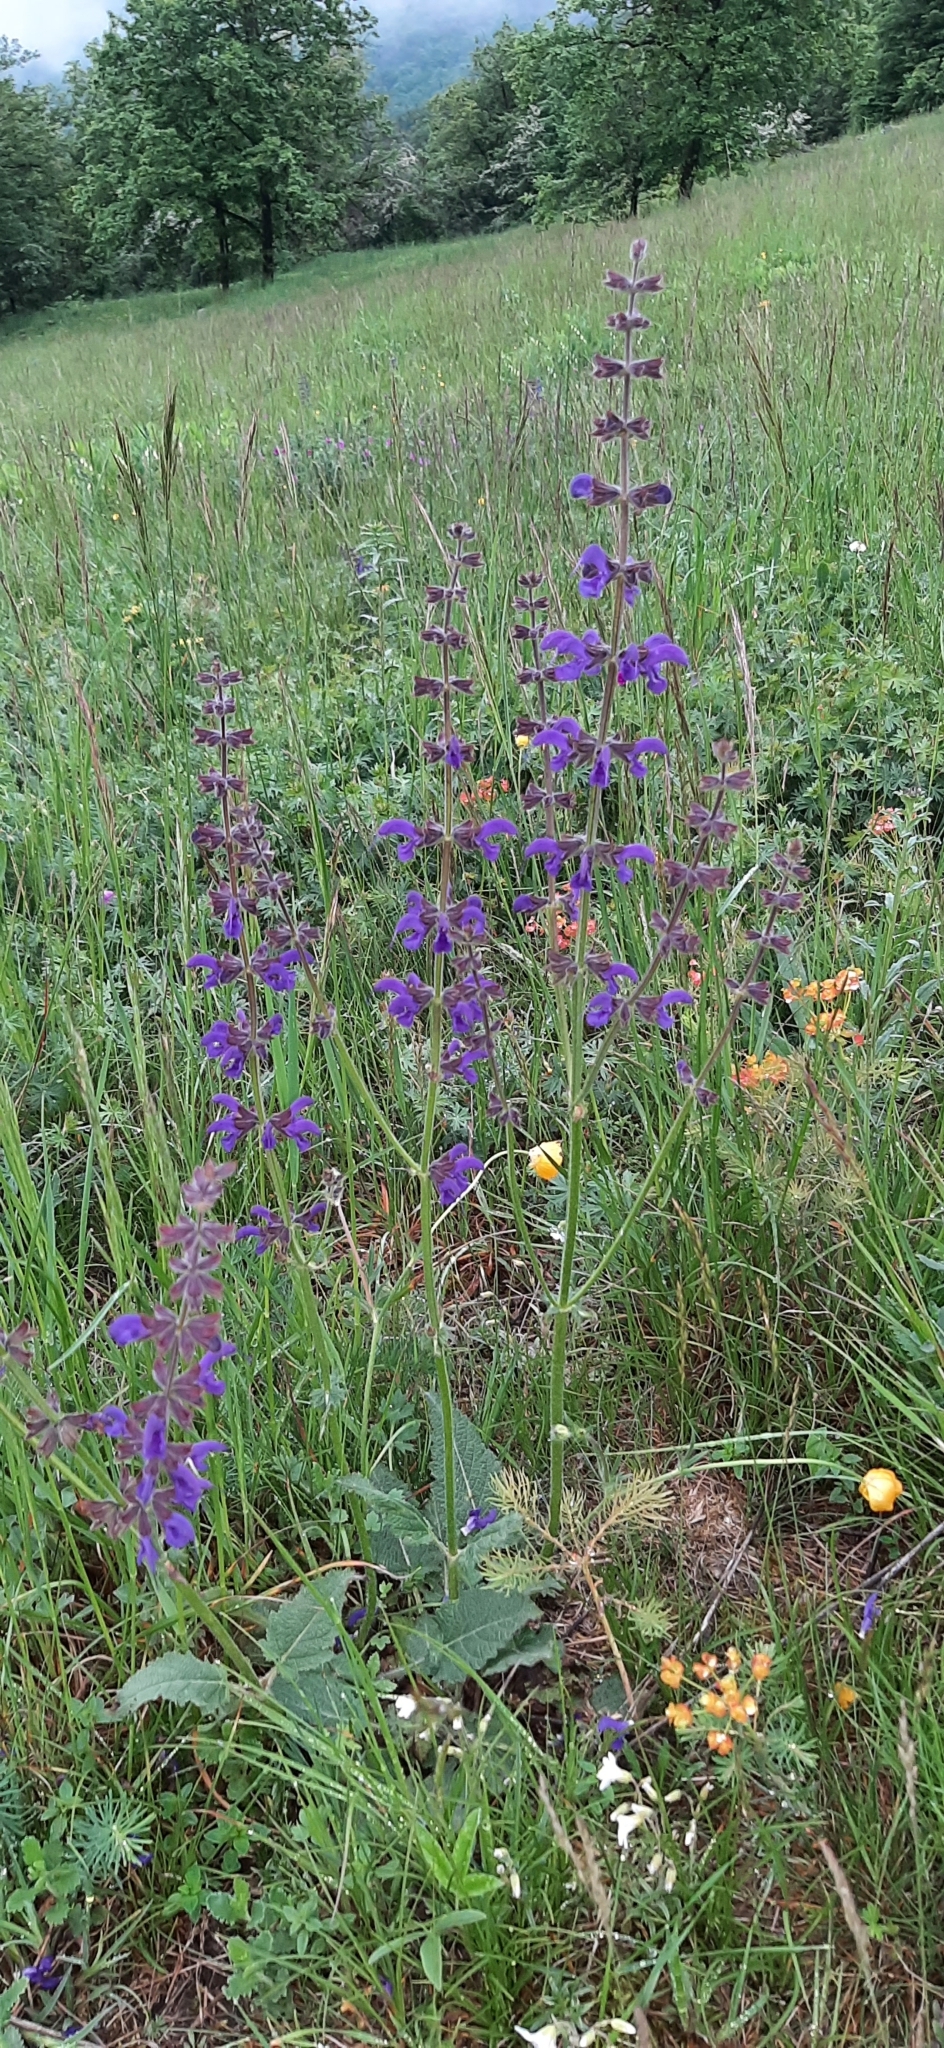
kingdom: Plantae
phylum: Tracheophyta
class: Magnoliopsida
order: Lamiales
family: Lamiaceae
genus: Salvia
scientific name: Salvia pratensis
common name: Meadow sage
